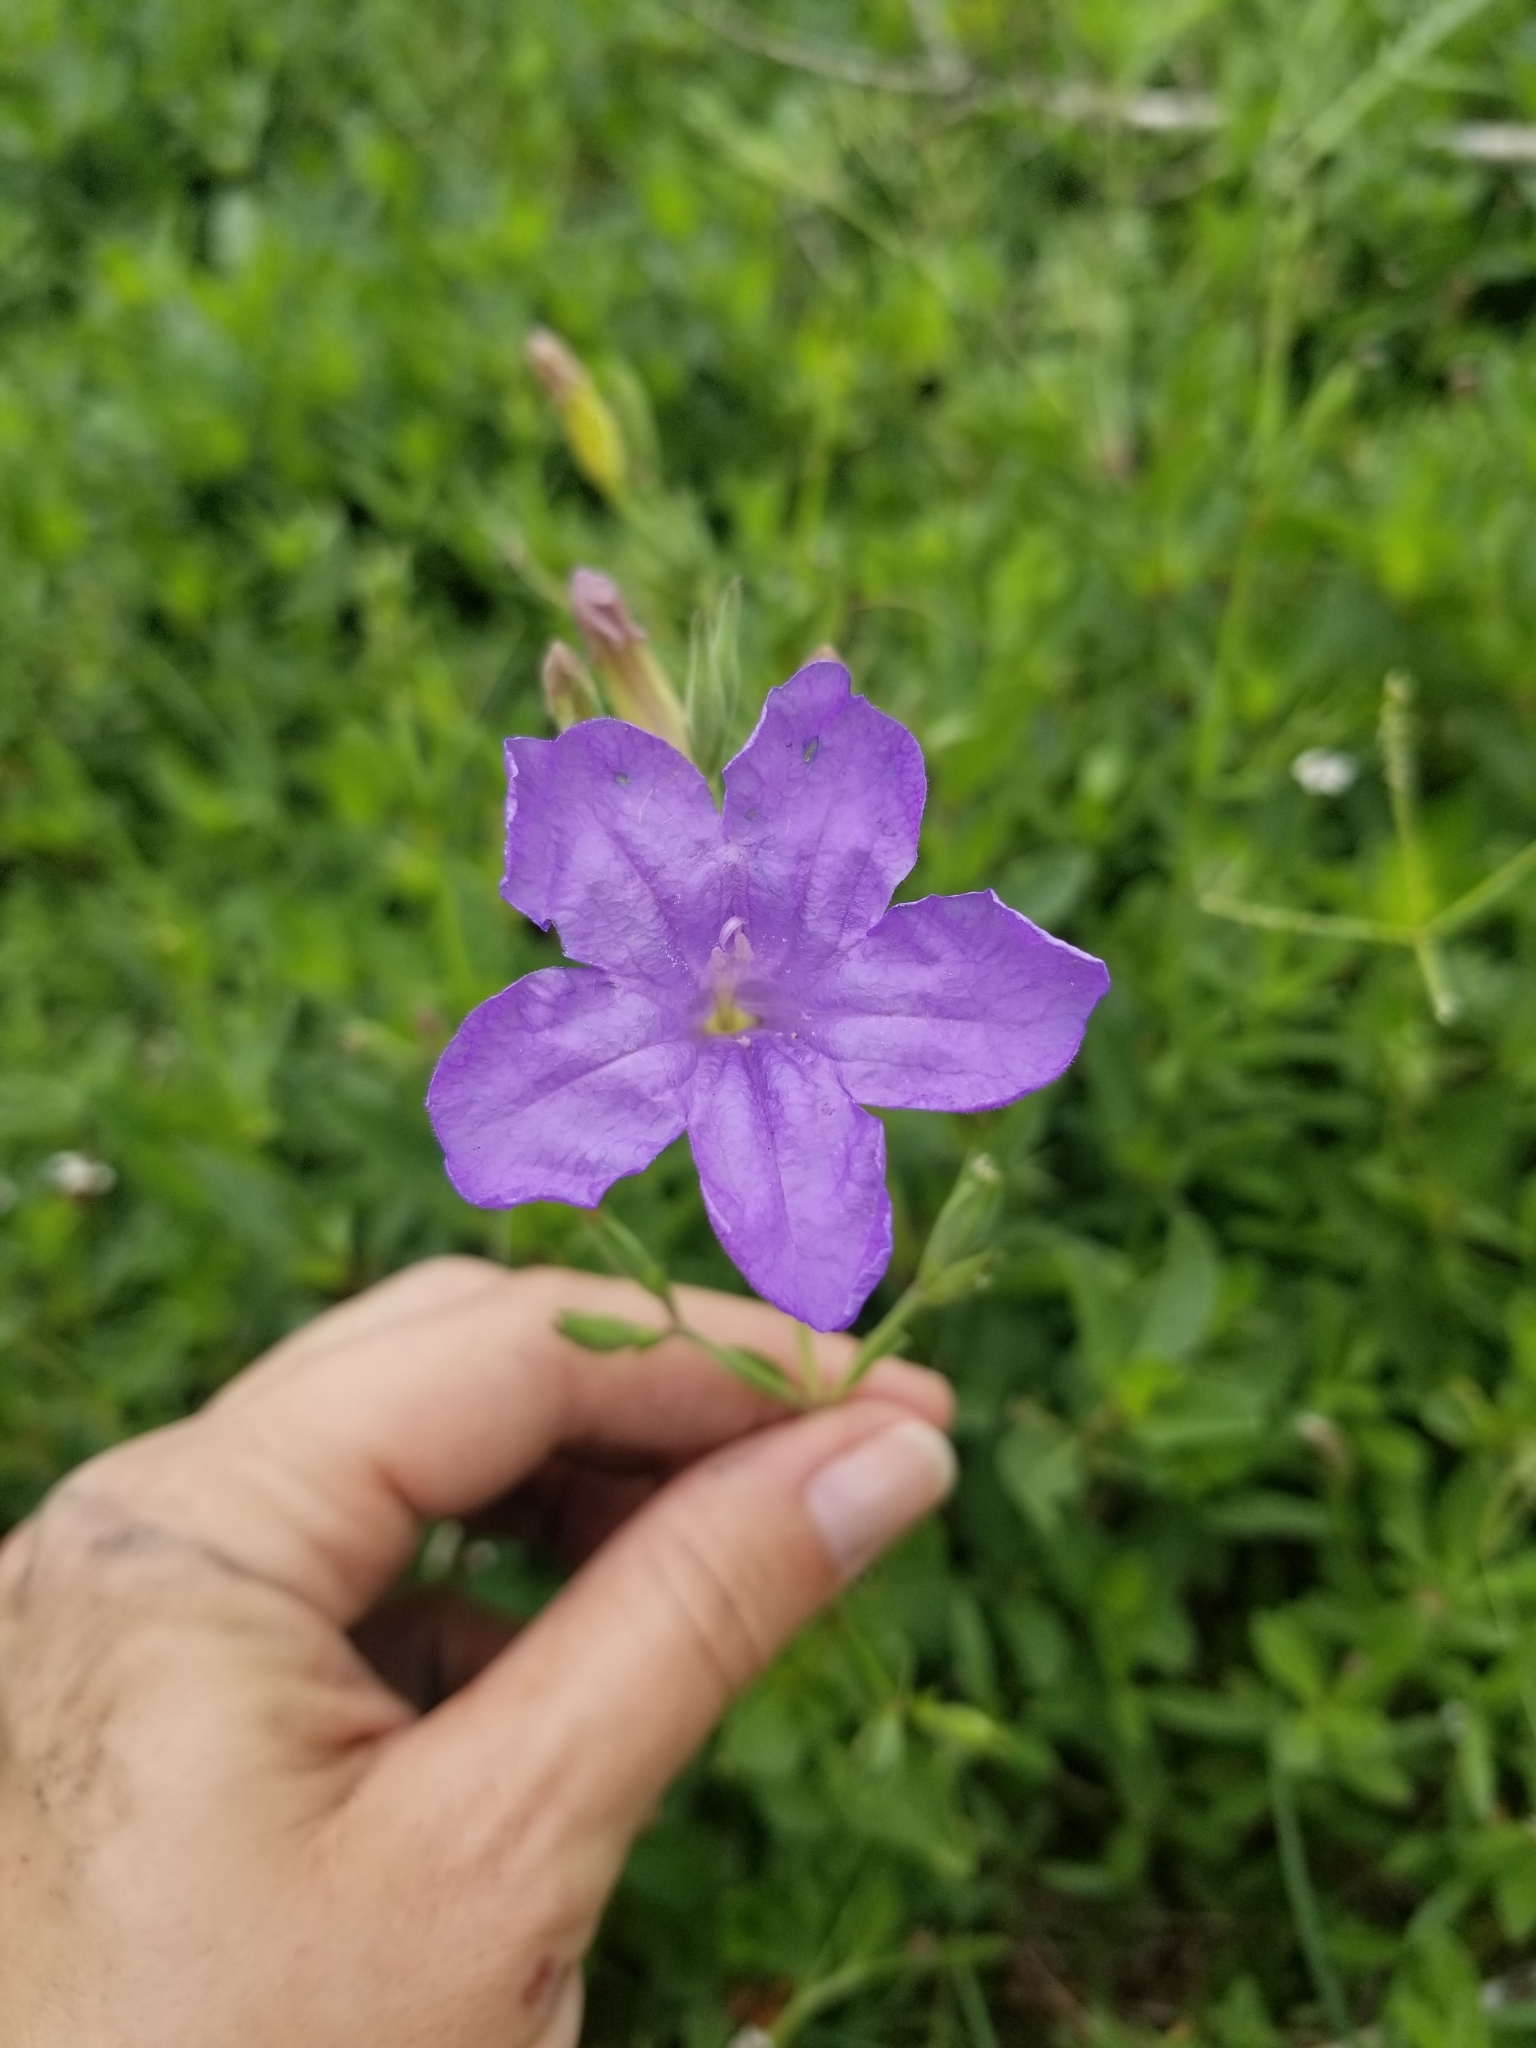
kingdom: Plantae
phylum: Tracheophyta
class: Magnoliopsida
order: Lamiales
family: Acanthaceae
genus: Ruellia
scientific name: Ruellia ciliatiflora
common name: Hairyflower wild petunia
